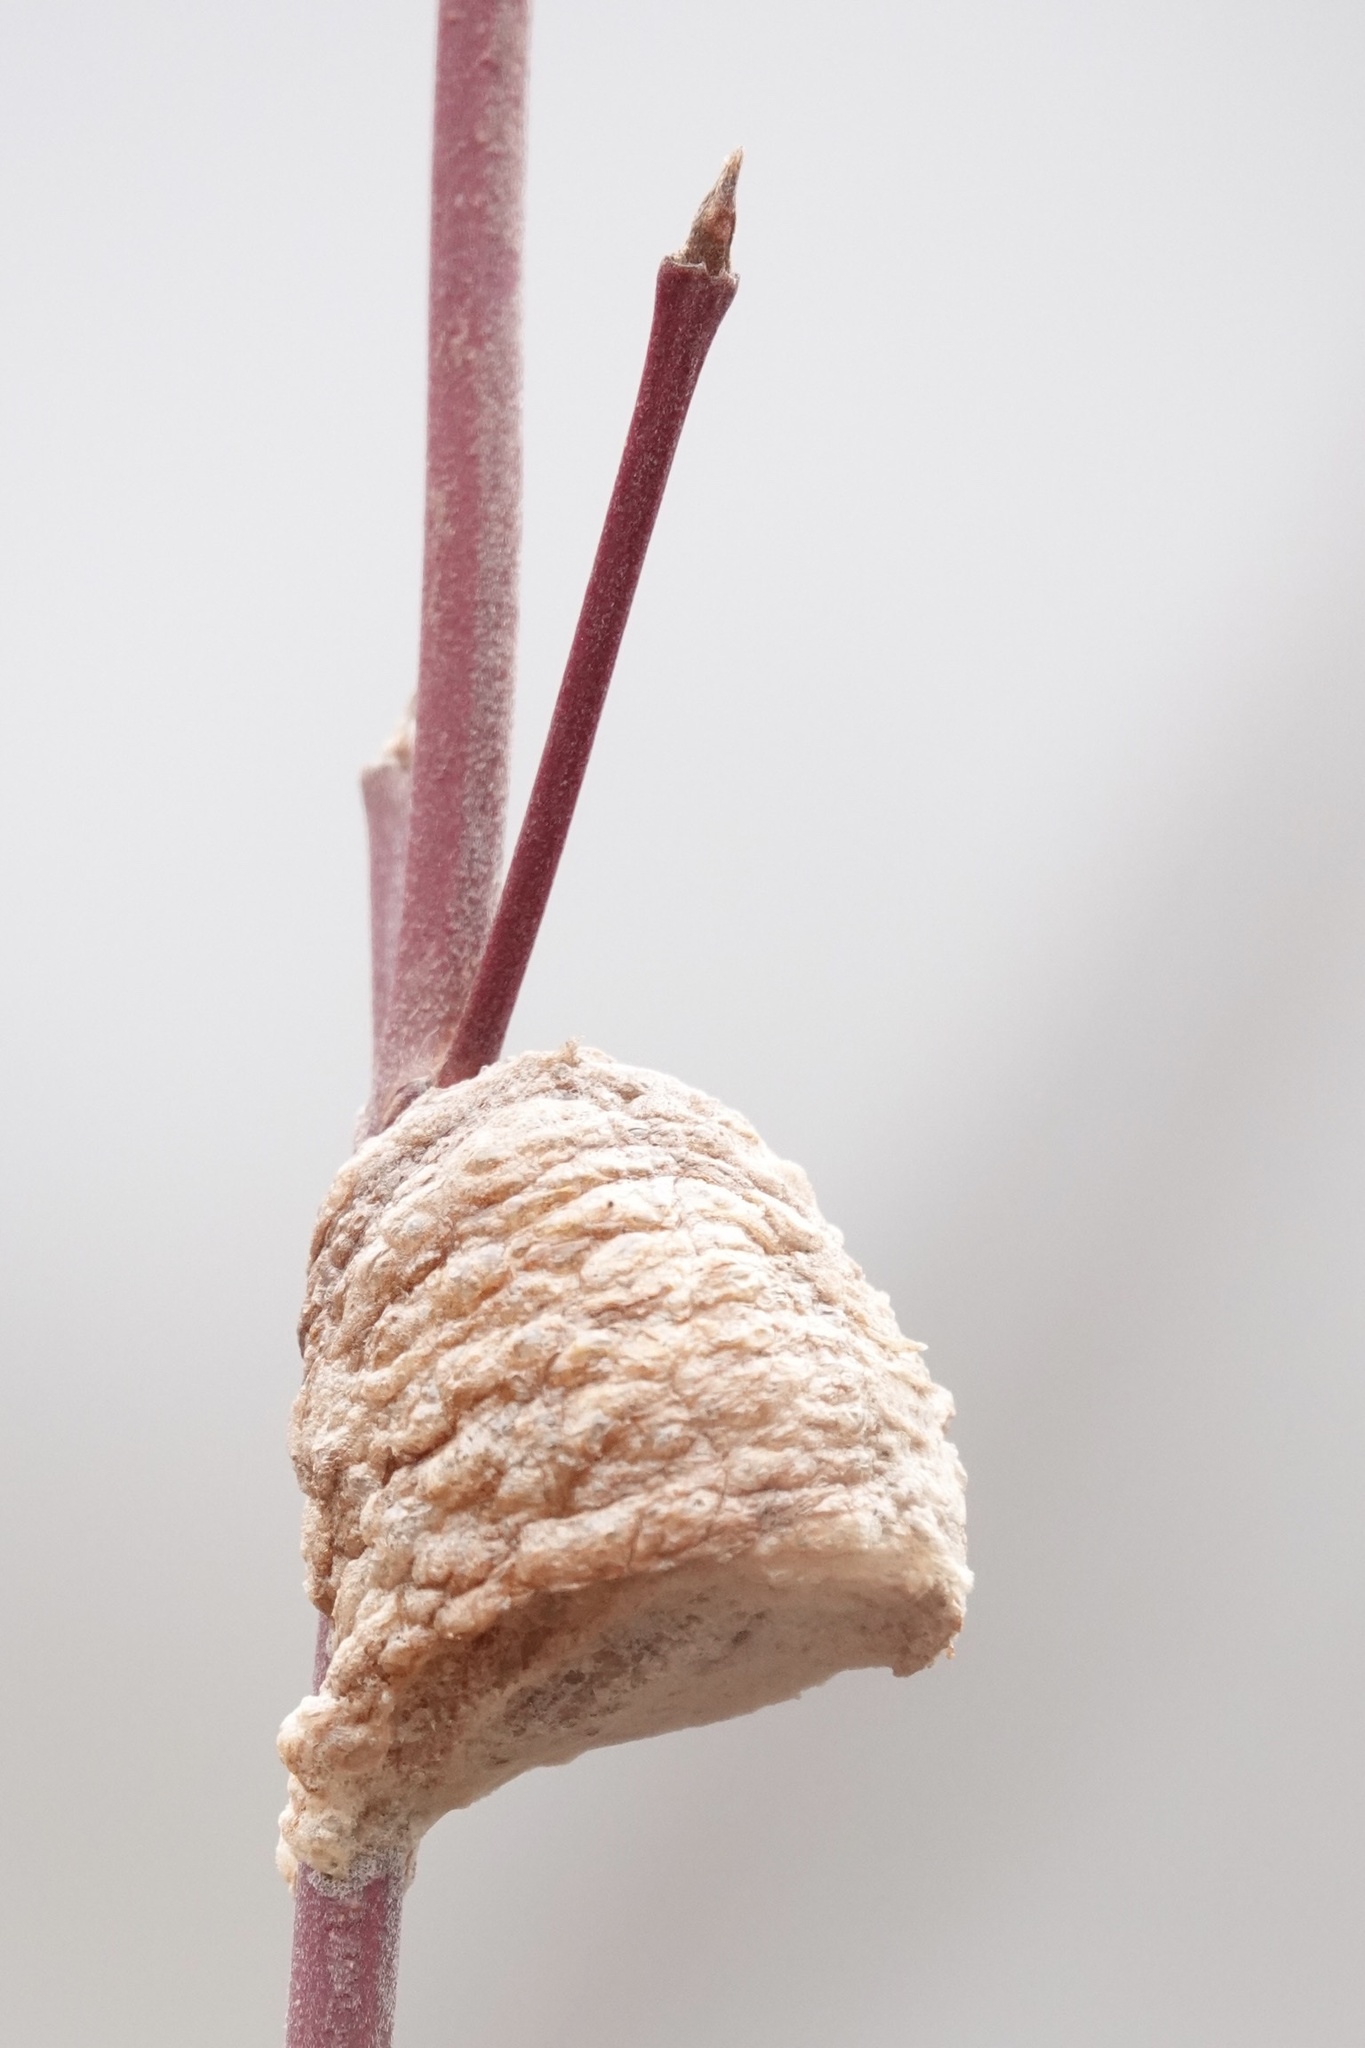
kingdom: Animalia
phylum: Arthropoda
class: Insecta
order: Mantodea
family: Mantidae
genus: Tenodera
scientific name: Tenodera sinensis
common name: Chinese mantis
